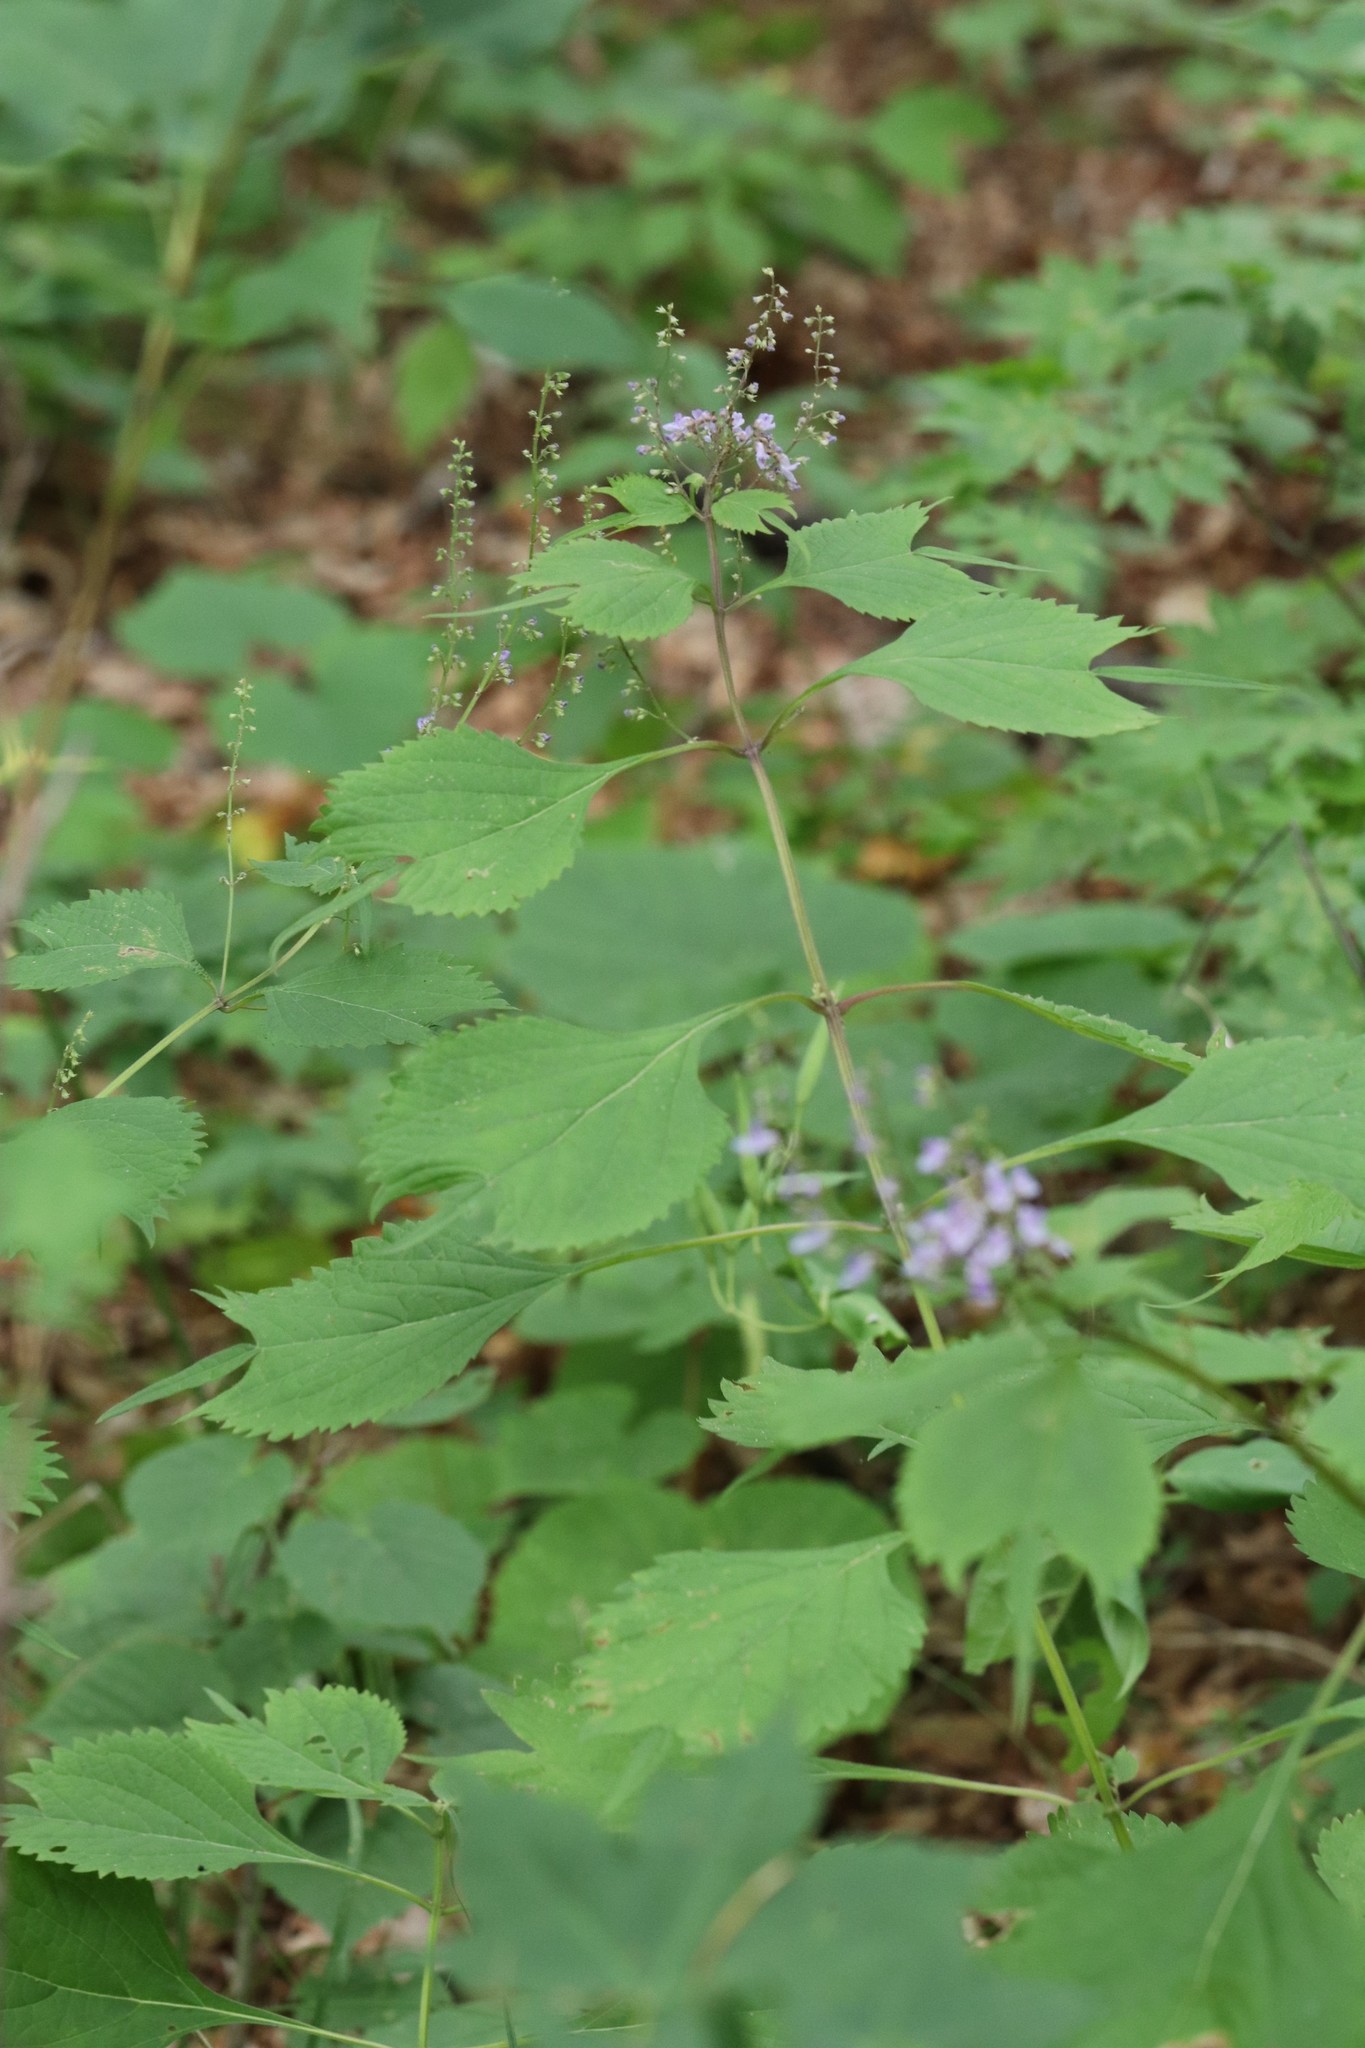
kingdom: Plantae
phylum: Tracheophyta
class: Magnoliopsida
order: Lamiales
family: Lamiaceae
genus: Isodon
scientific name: Isodon excisus
